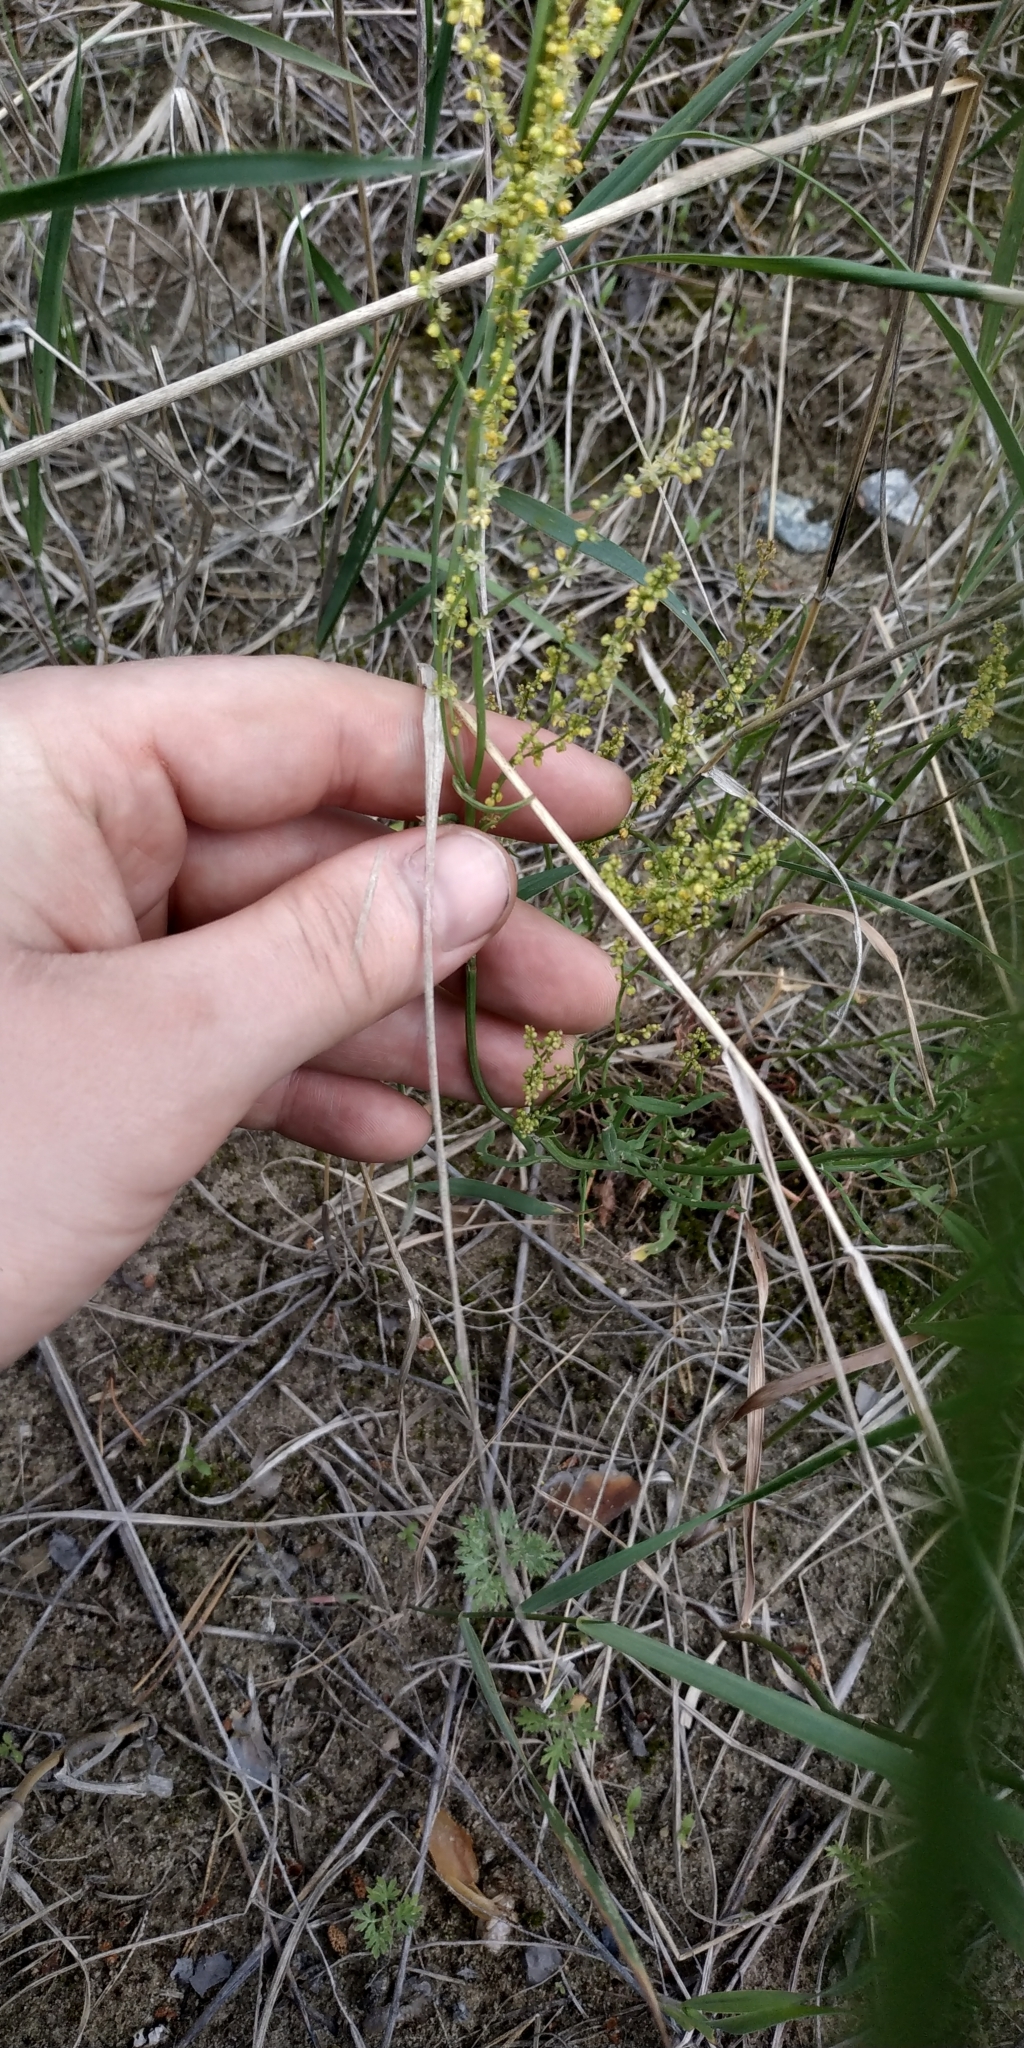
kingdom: Plantae
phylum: Tracheophyta
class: Magnoliopsida
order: Caryophyllales
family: Polygonaceae
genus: Rumex
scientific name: Rumex acetosella
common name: Common sheep sorrel
